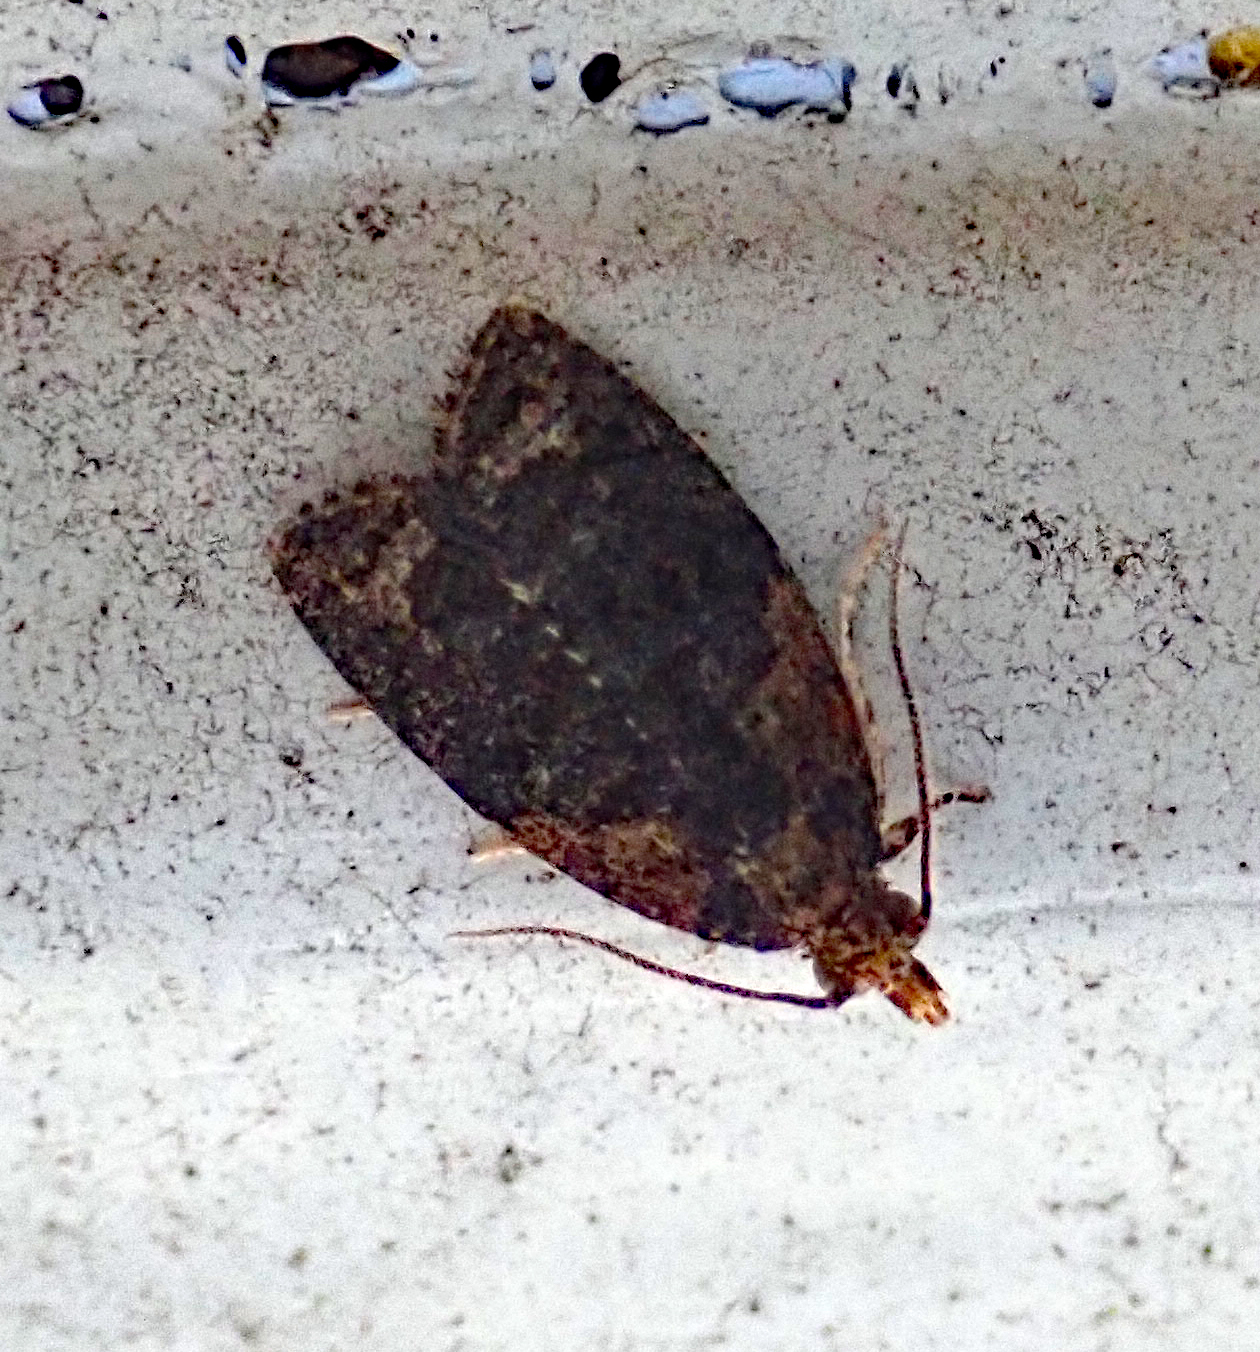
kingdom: Animalia
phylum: Arthropoda
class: Insecta
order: Lepidoptera
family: Tortricidae
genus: Capua
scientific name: Capua intractana
